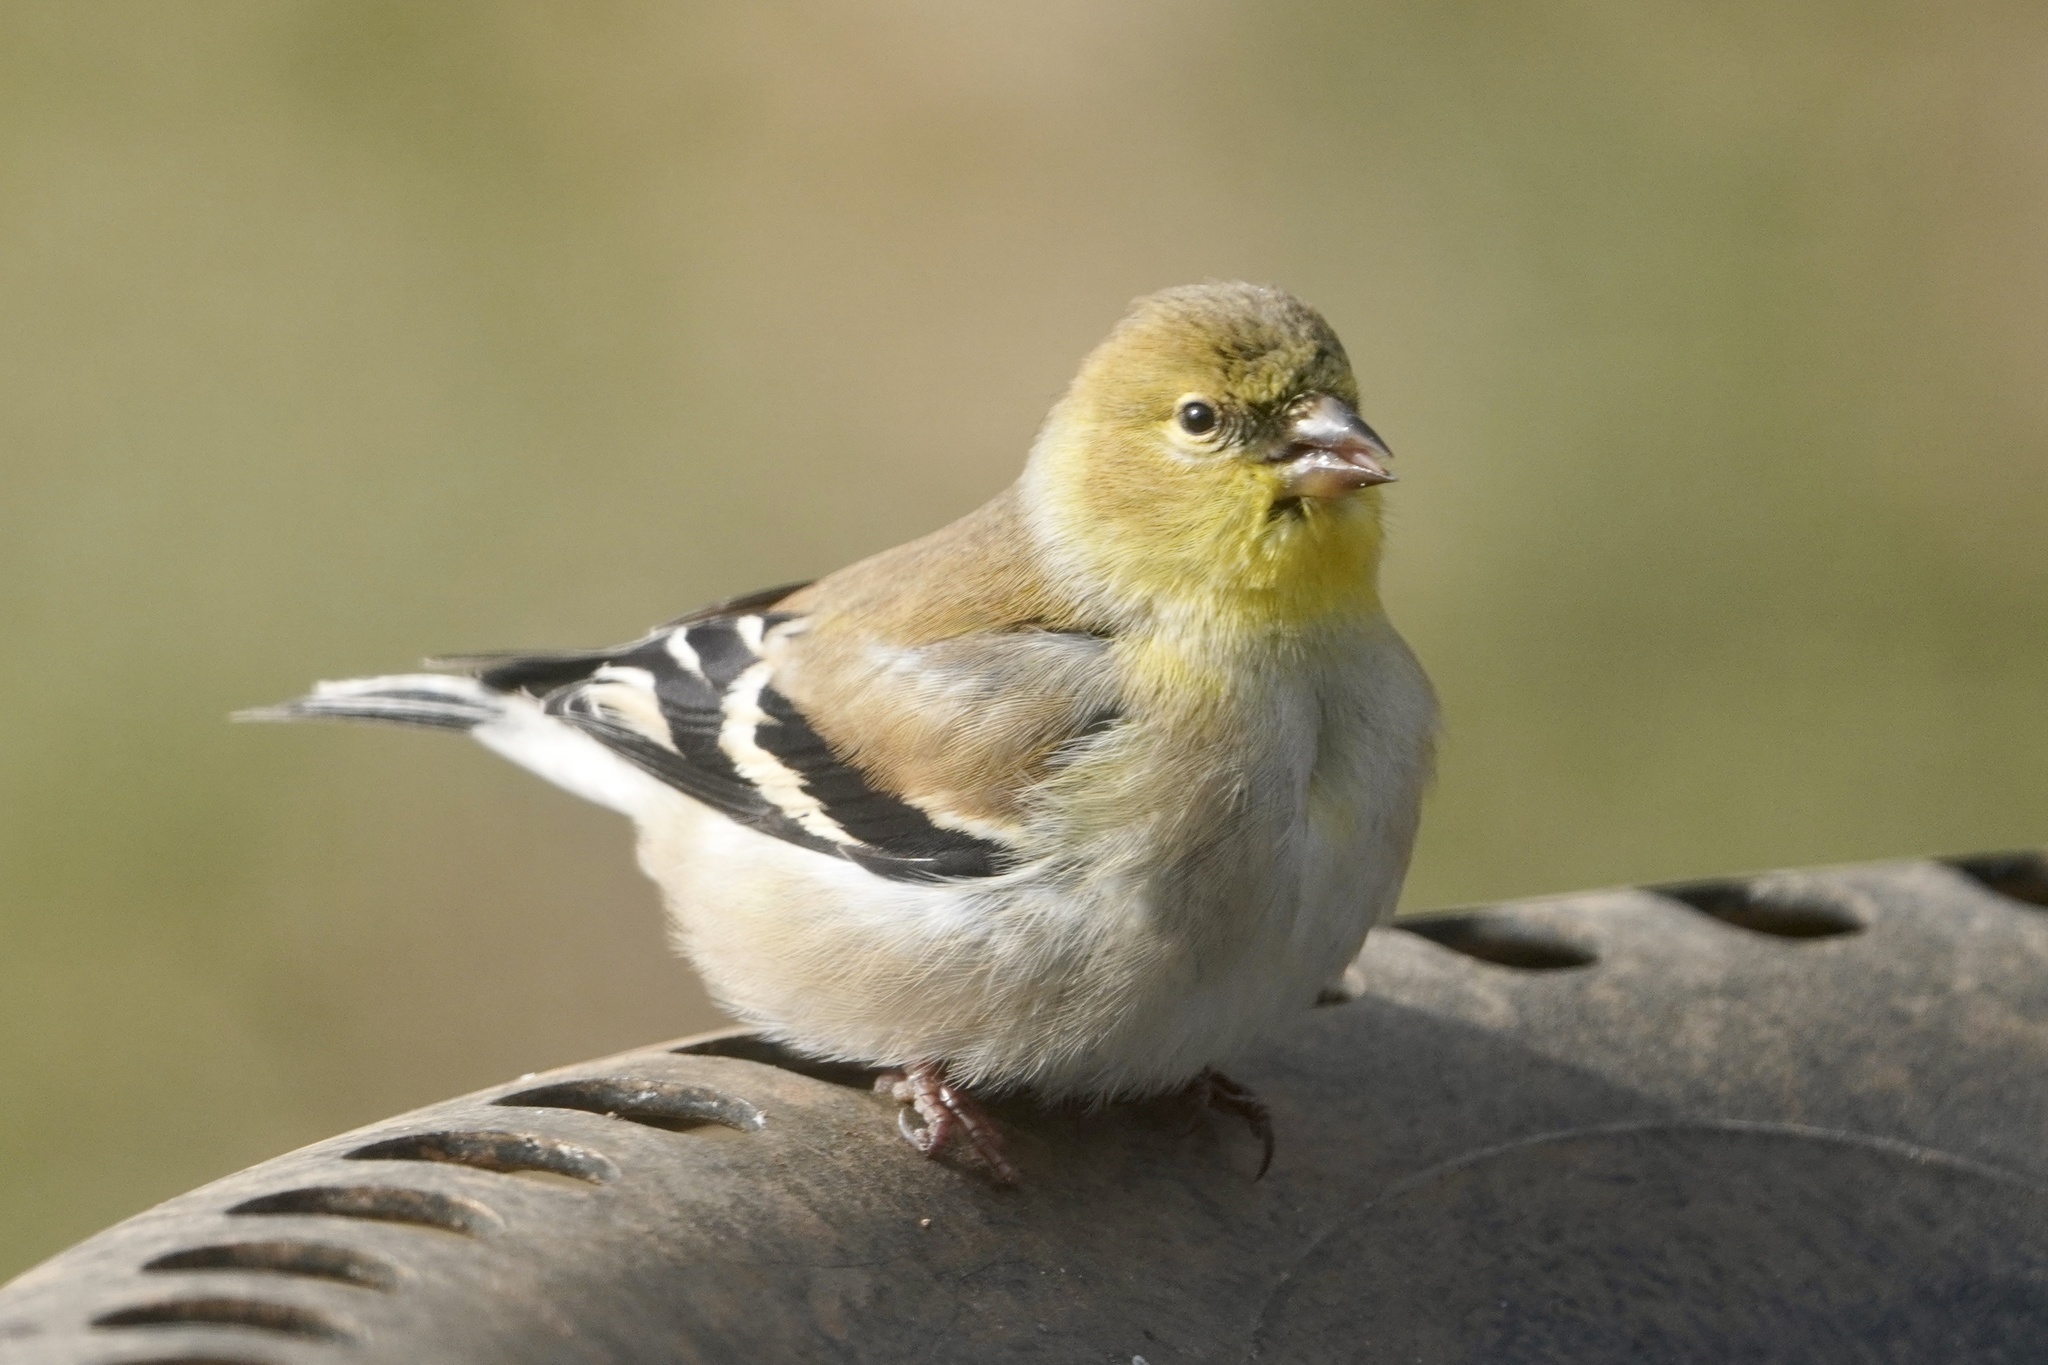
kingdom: Animalia
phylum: Chordata
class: Aves
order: Passeriformes
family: Fringillidae
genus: Spinus
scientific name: Spinus tristis
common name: American goldfinch
